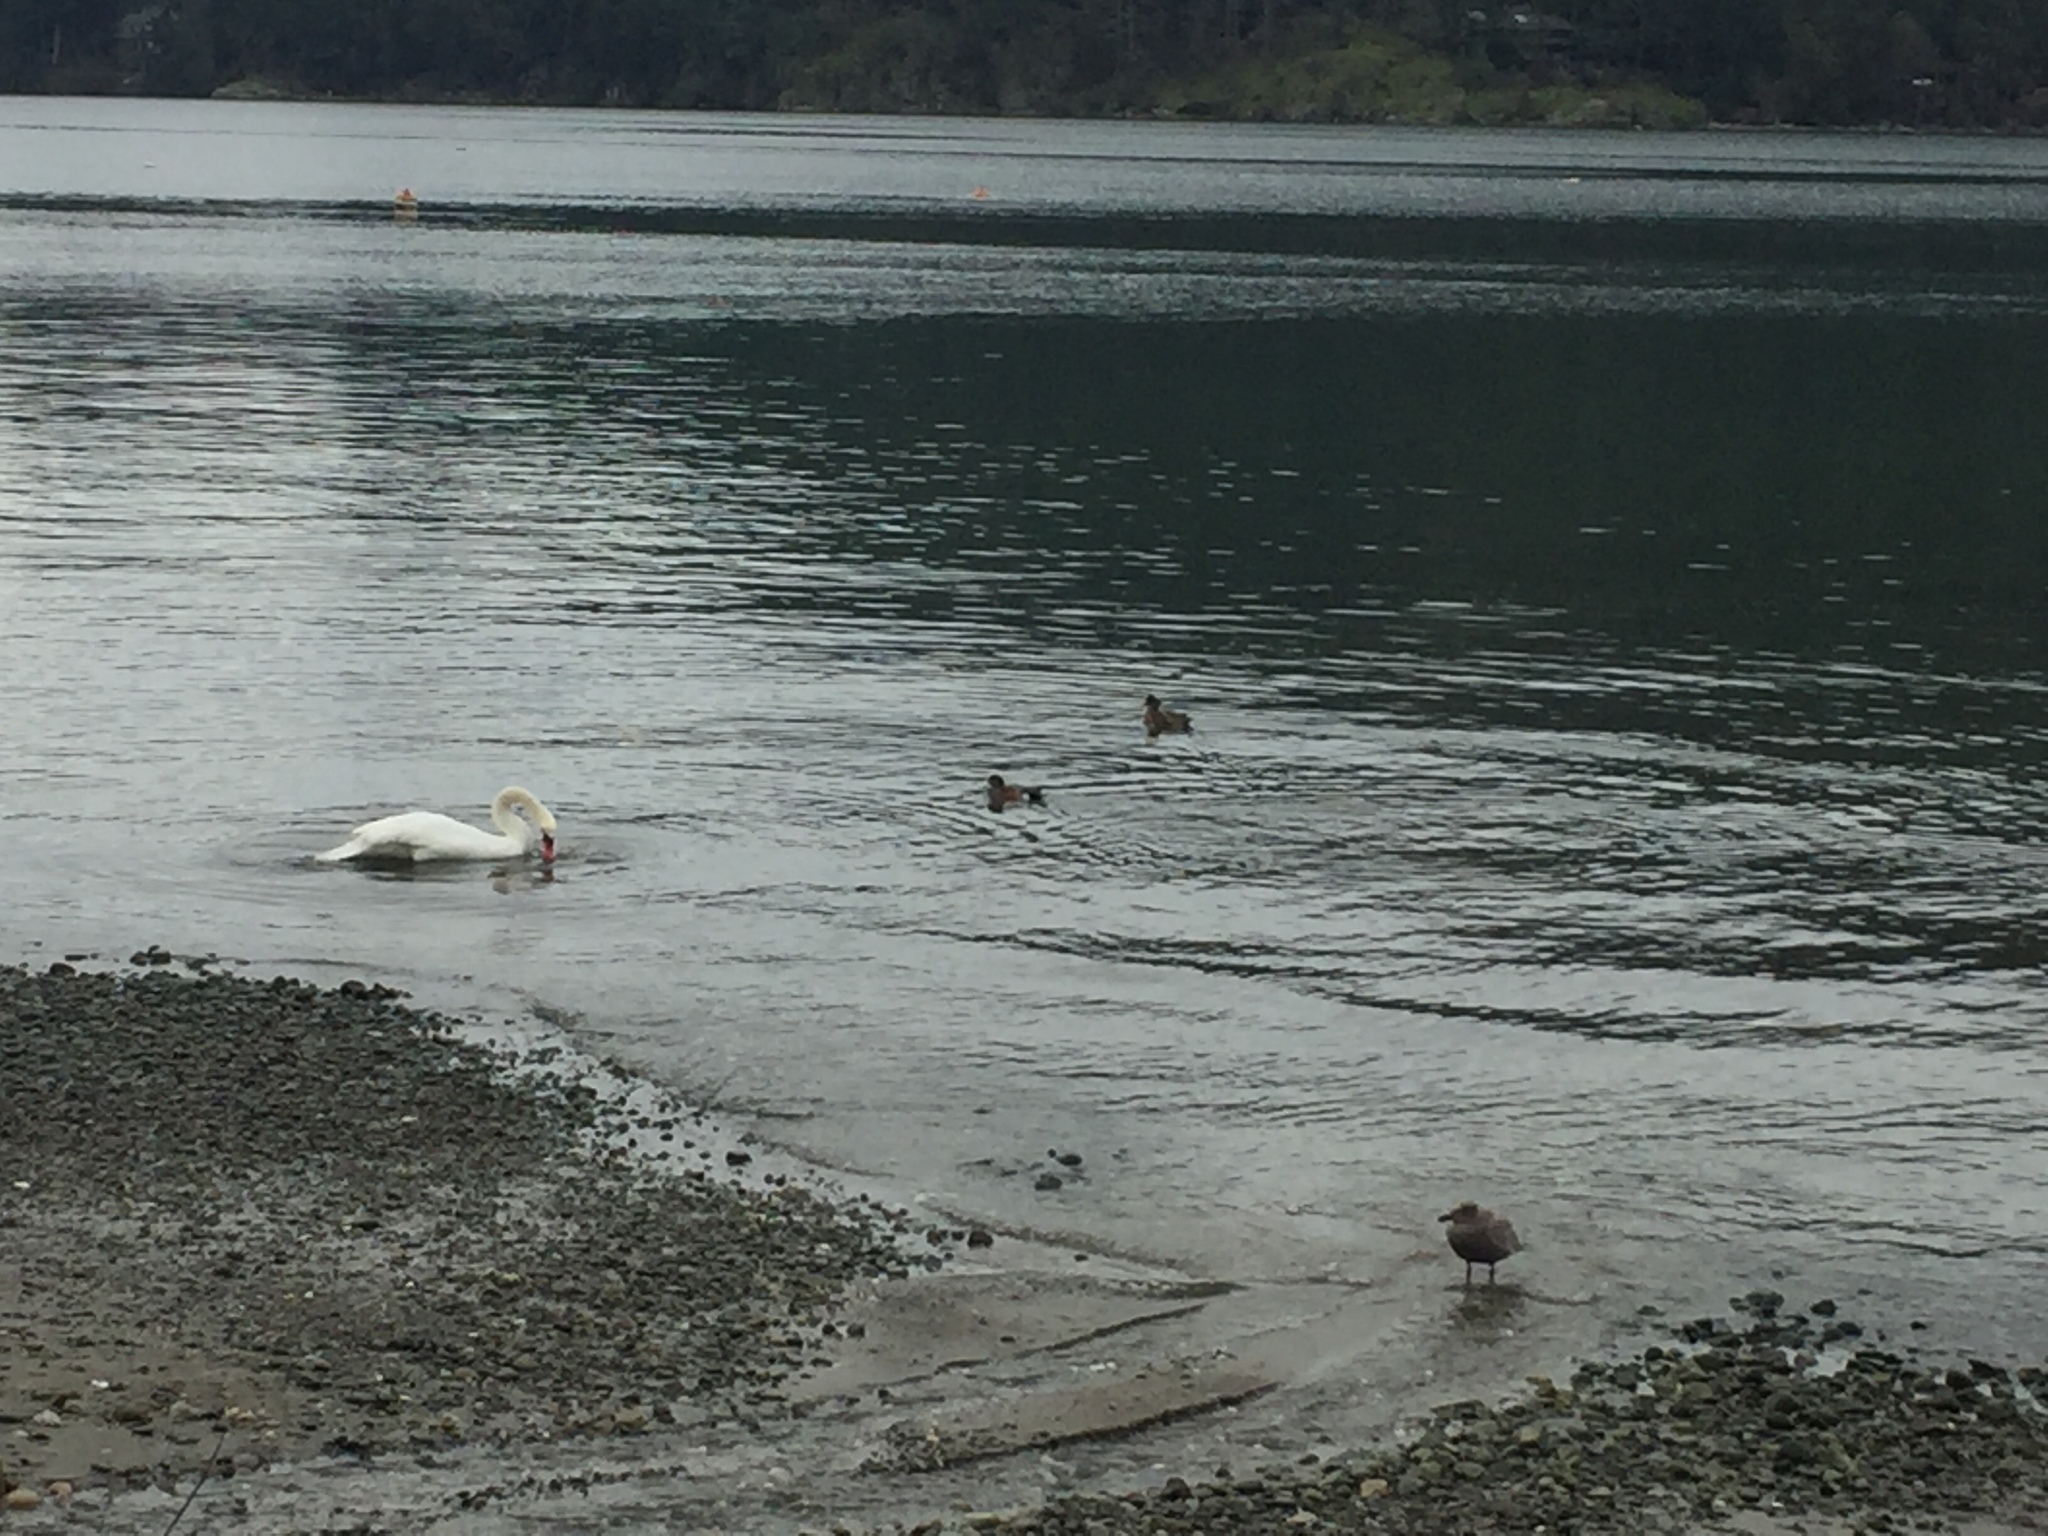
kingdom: Animalia
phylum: Chordata
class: Aves
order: Anseriformes
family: Anatidae
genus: Mareca
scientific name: Mareca americana
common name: American wigeon
